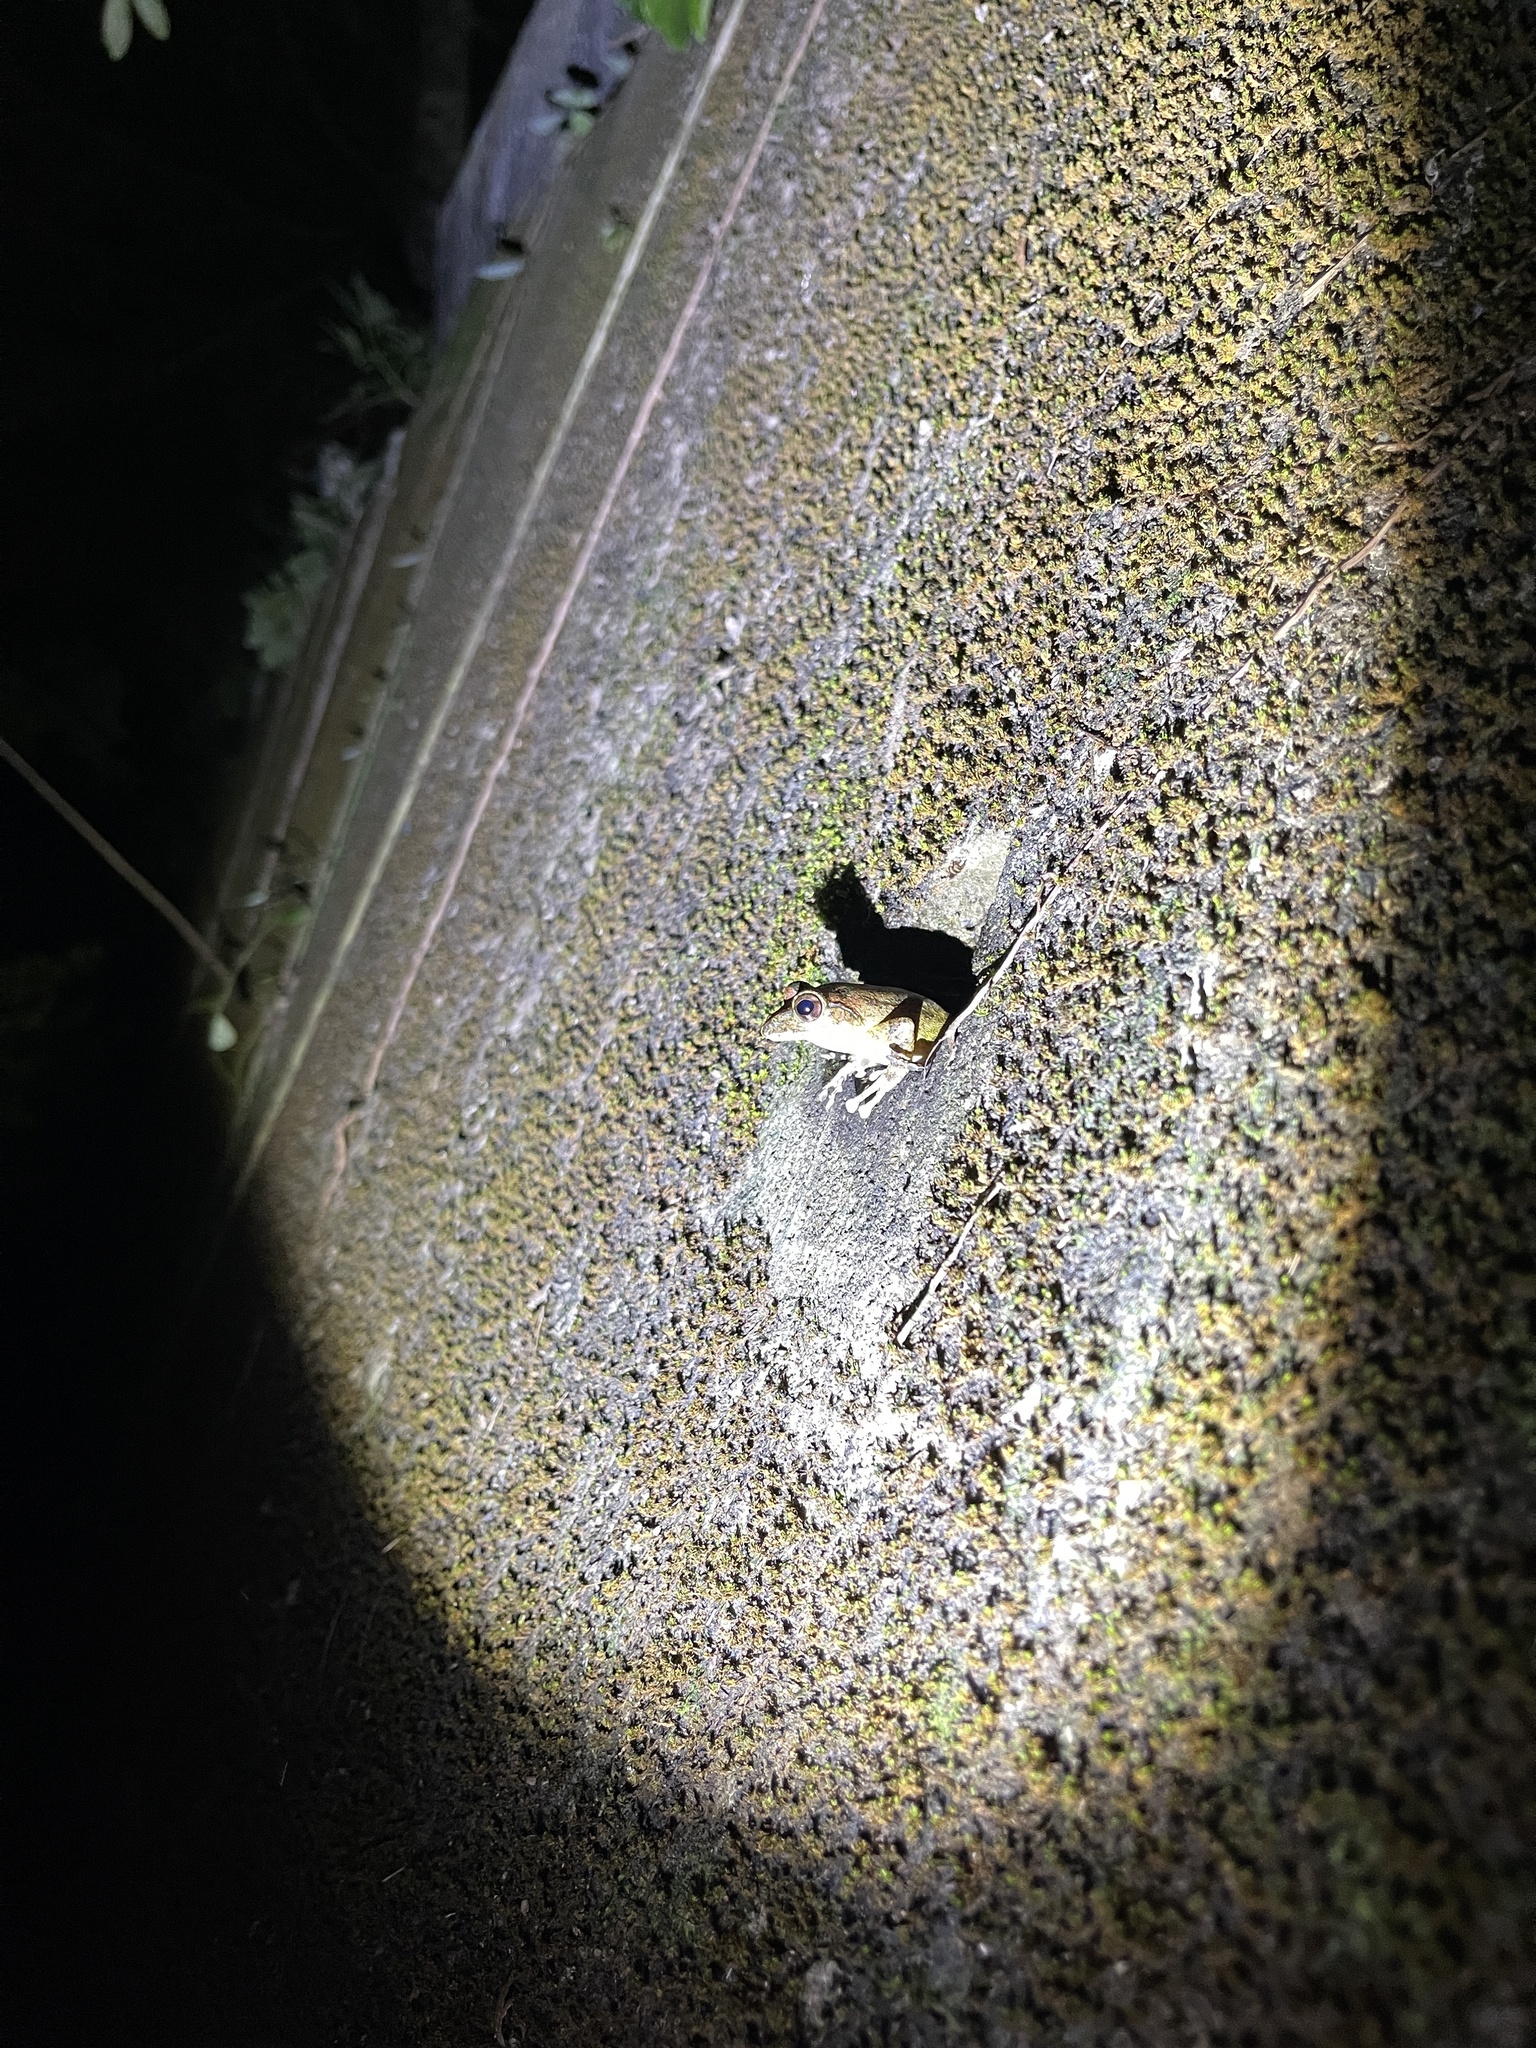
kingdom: Animalia
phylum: Chordata
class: Amphibia
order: Anura
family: Rhacophoridae
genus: Buergeria
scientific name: Buergeria robusta
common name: Brown treefrog
